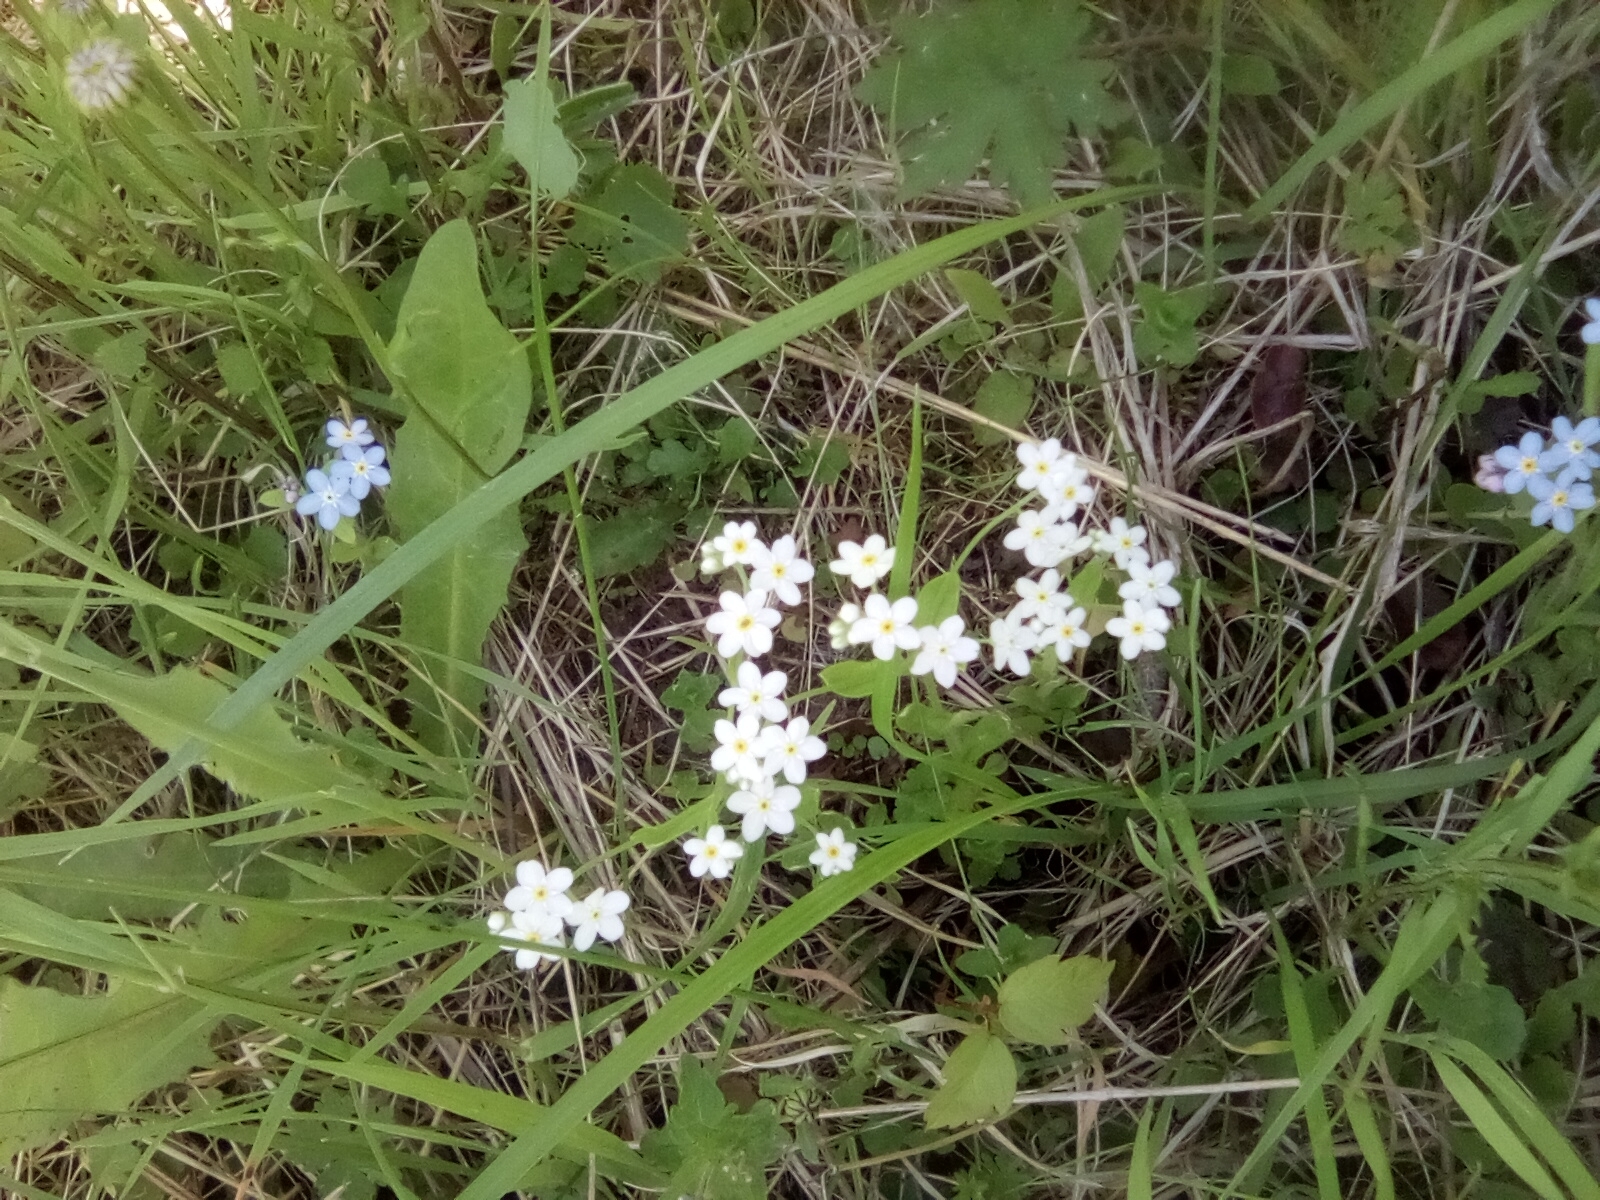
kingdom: Plantae
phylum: Tracheophyta
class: Magnoliopsida
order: Boraginales
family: Boraginaceae
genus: Myosotis
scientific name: Myosotis sylvatica
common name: Wood forget-me-not
